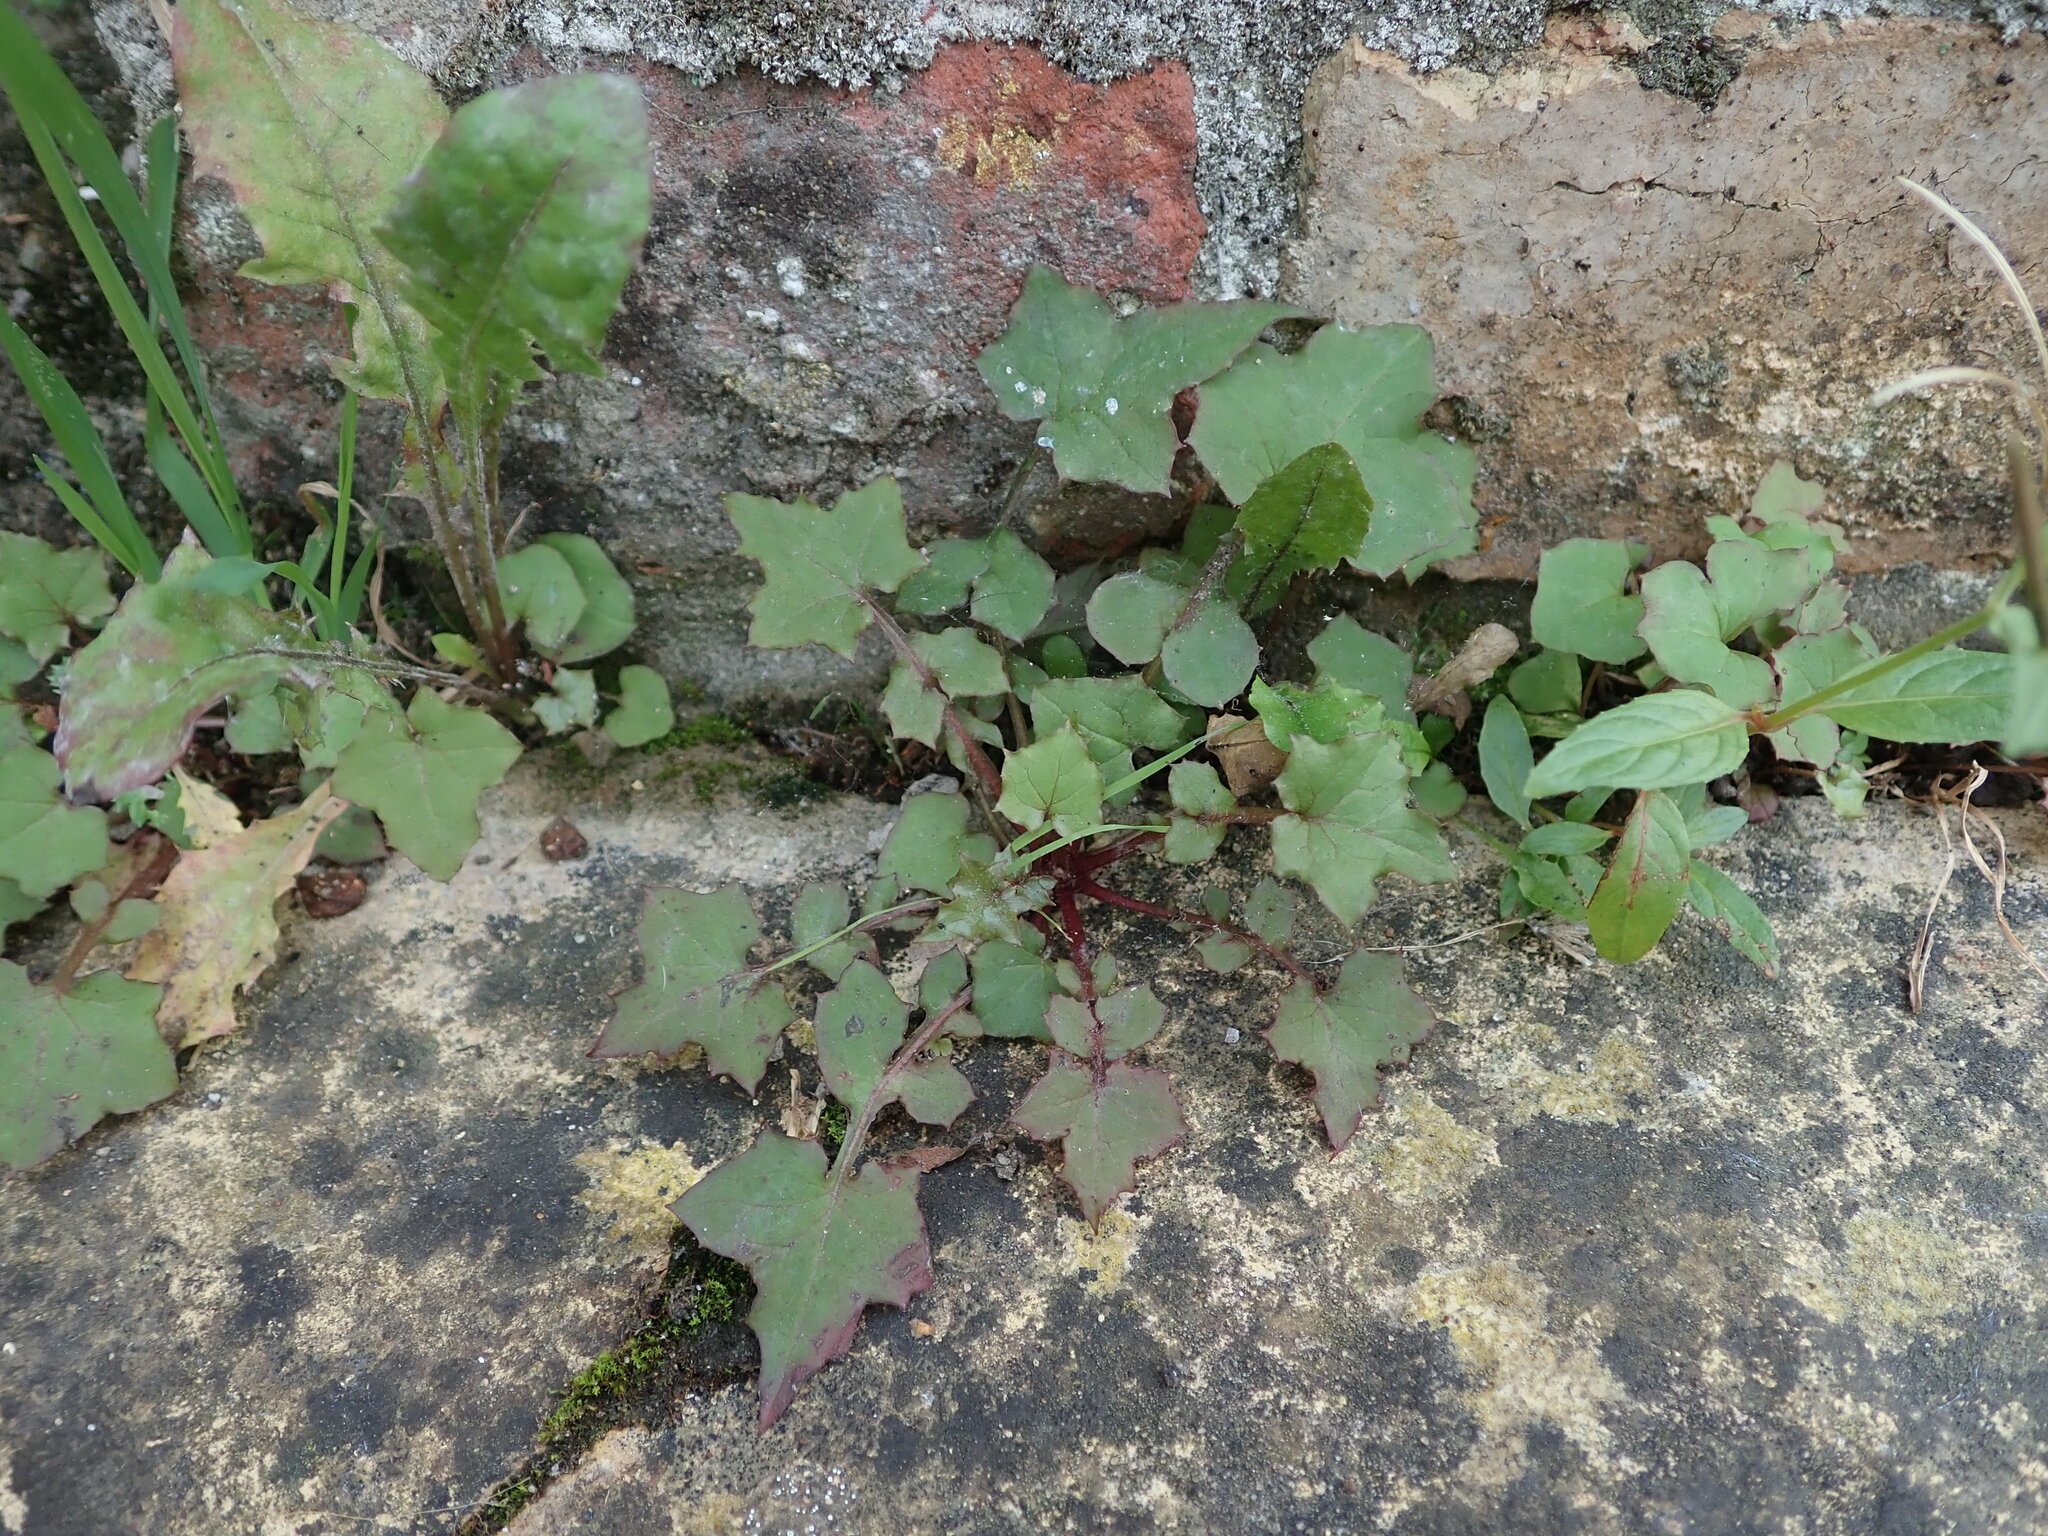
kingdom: Plantae
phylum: Tracheophyta
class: Magnoliopsida
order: Asterales
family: Asteraceae
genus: Mycelis
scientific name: Mycelis muralis
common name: Wall lettuce
